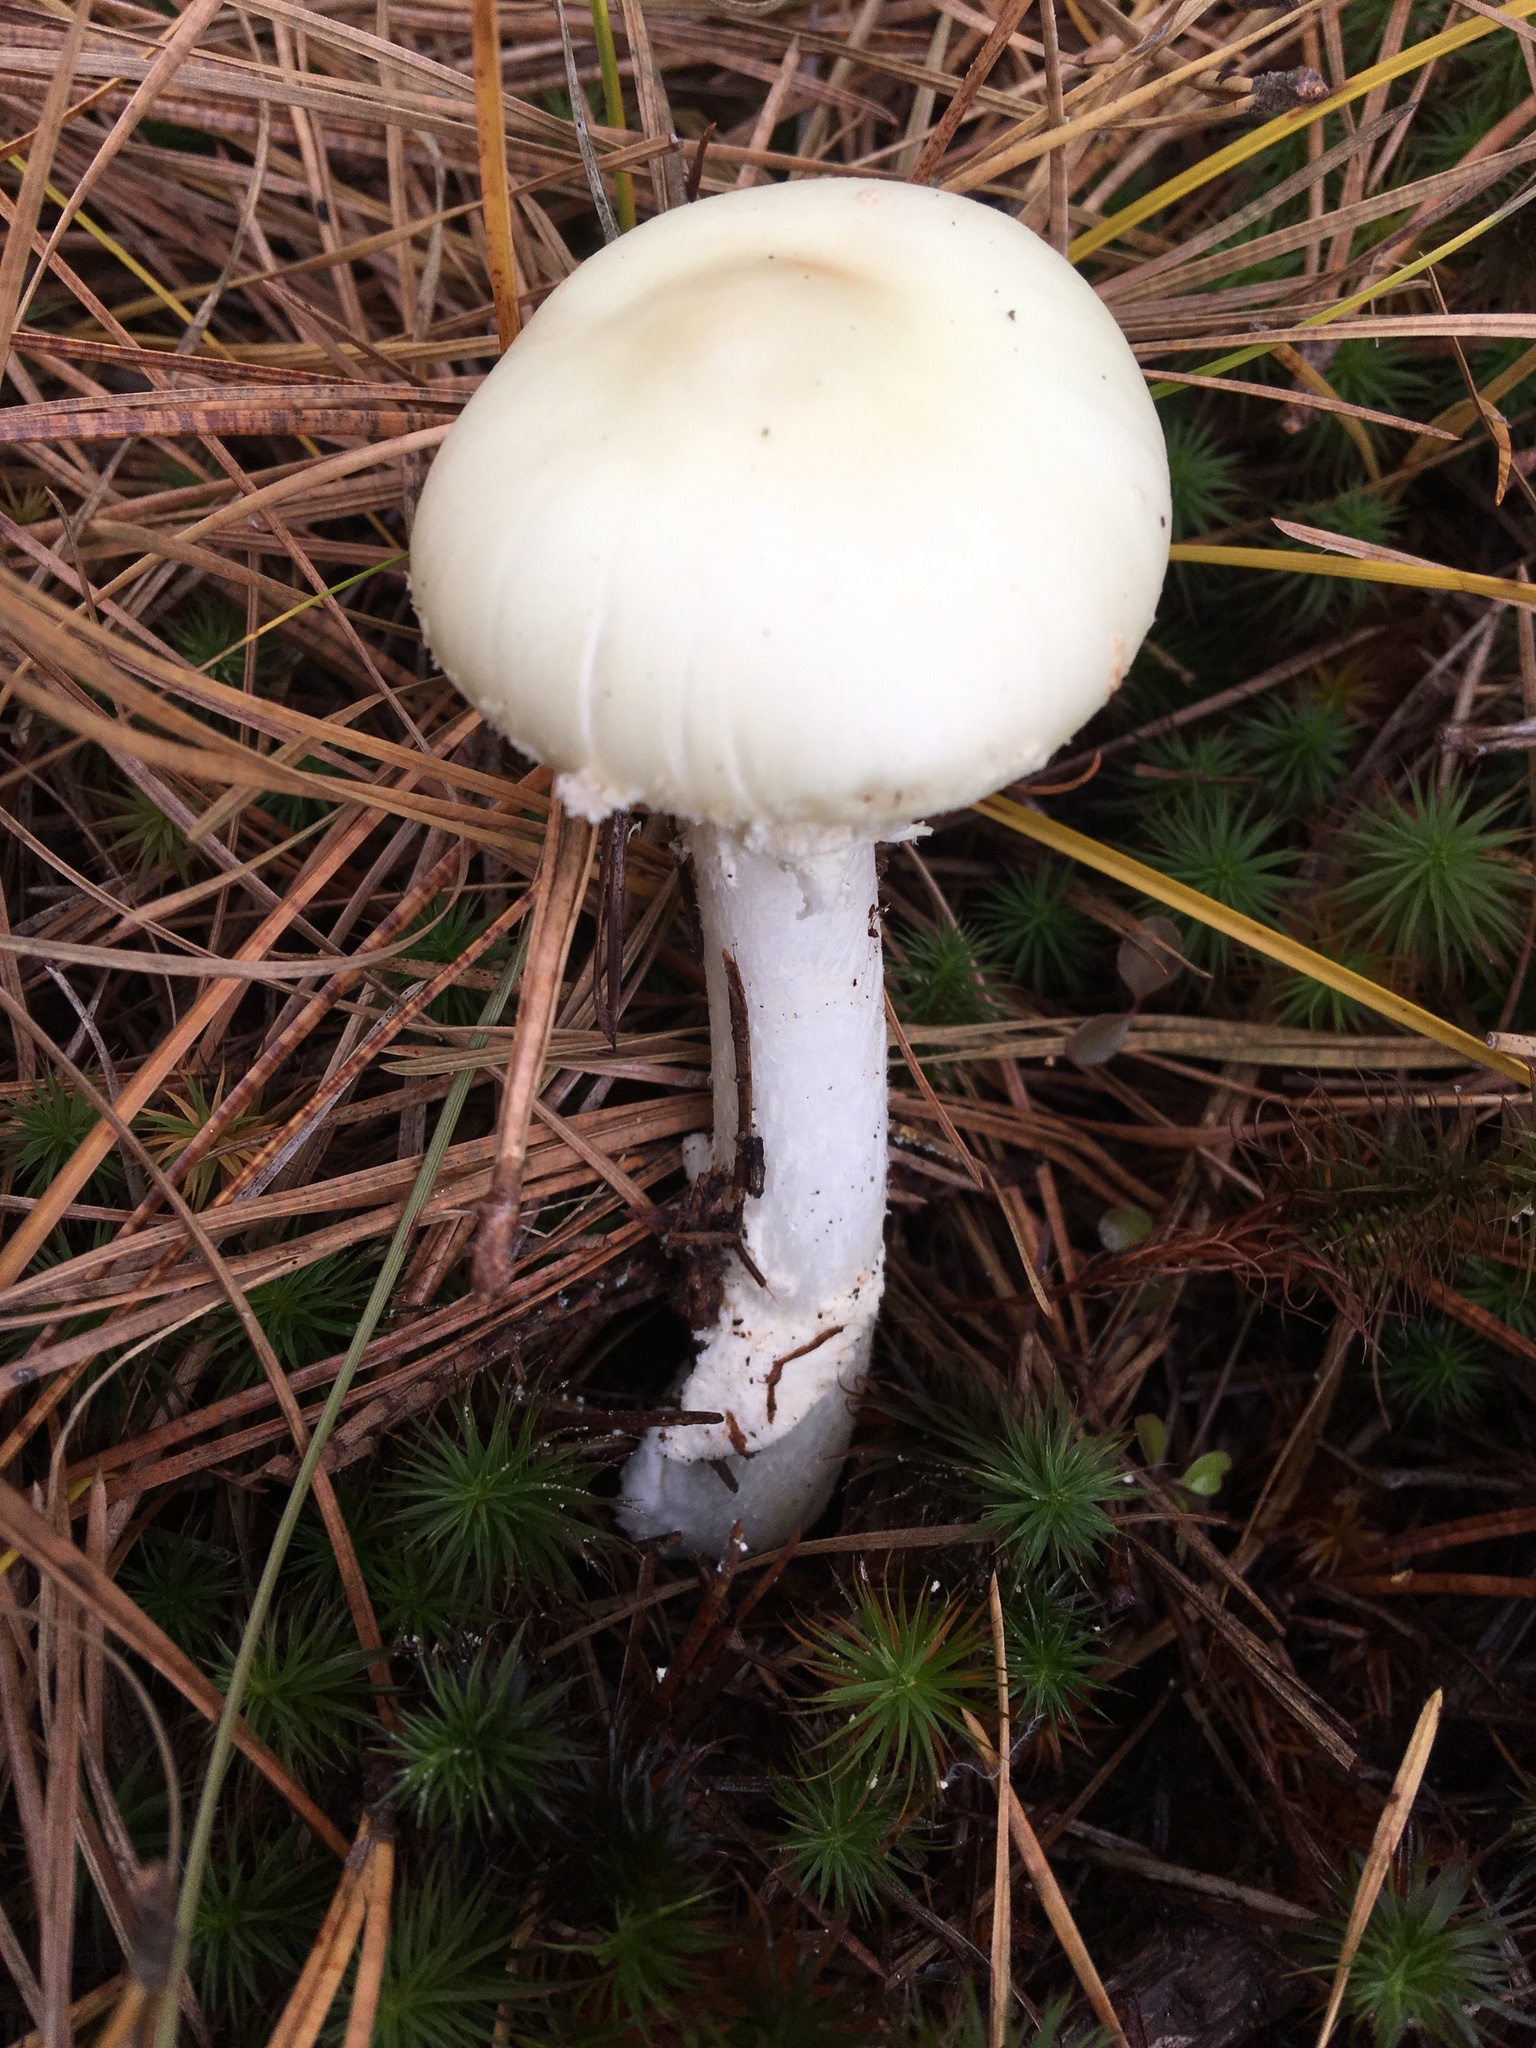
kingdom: Fungi
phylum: Basidiomycota
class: Agaricomycetes
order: Agaricales
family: Amanitaceae
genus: Amanita
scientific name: Amanita citrina
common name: False death-cap
